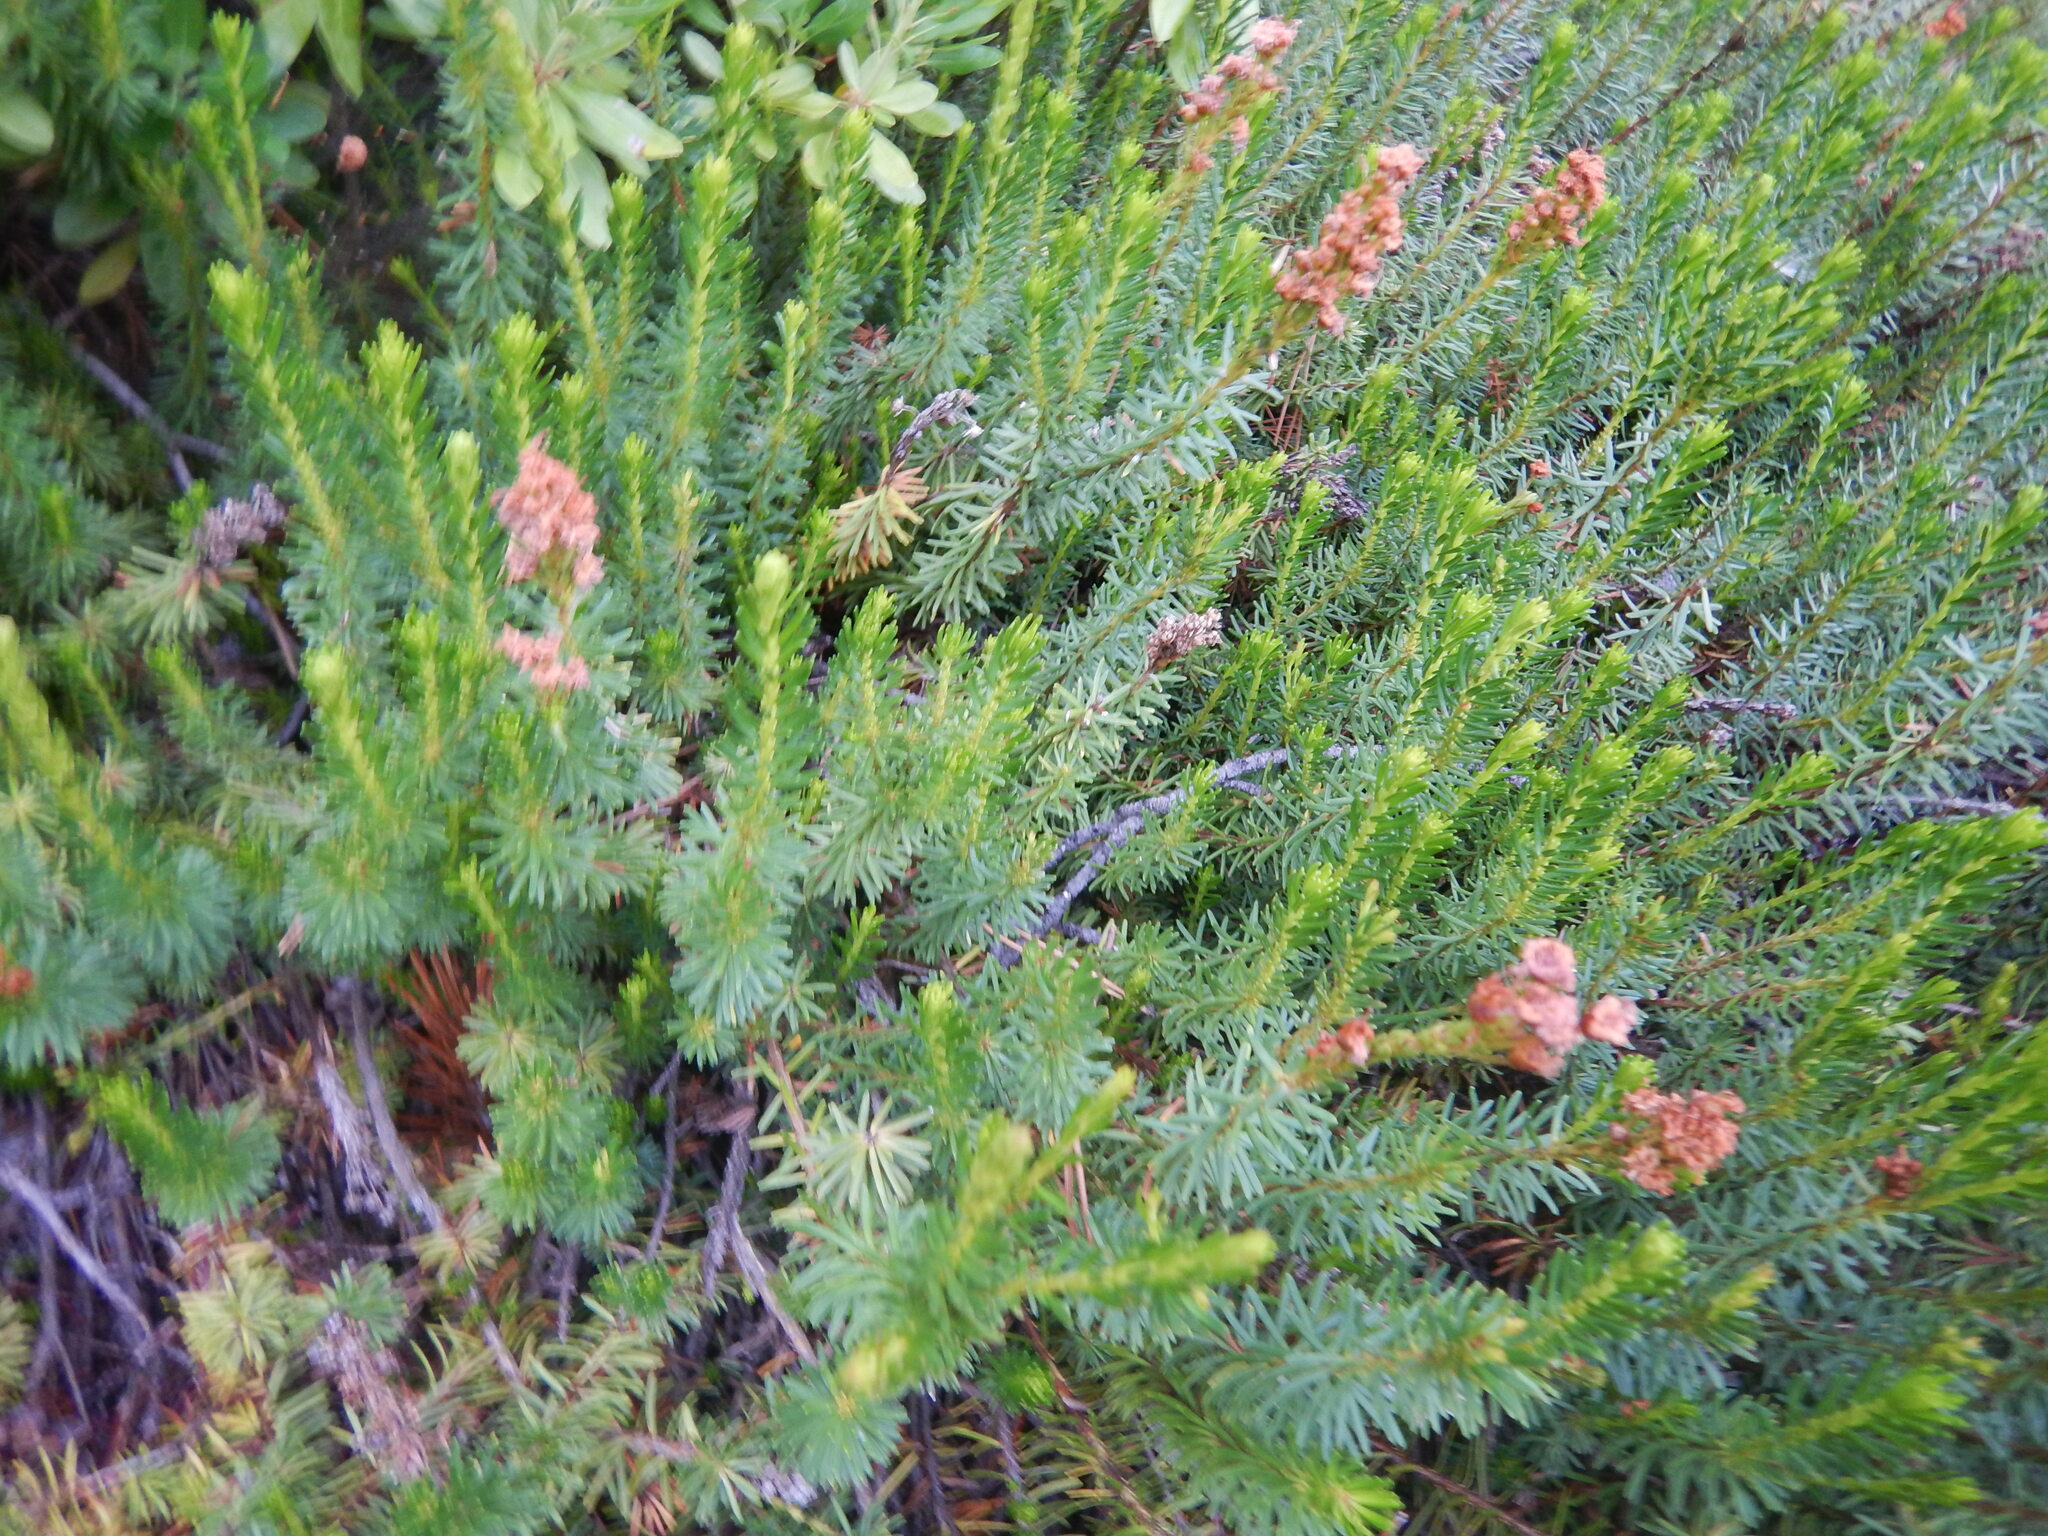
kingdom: Plantae
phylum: Tracheophyta
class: Magnoliopsida
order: Ericales
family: Ericaceae
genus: Phyllodoce
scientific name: Phyllodoce breweri
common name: Brewer's mountain-heather
